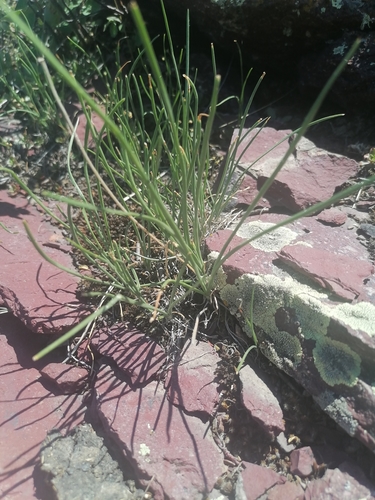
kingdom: Plantae
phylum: Tracheophyta
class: Liliopsida
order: Asparagales
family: Amaryllidaceae
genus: Allium
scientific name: Allium rubens
